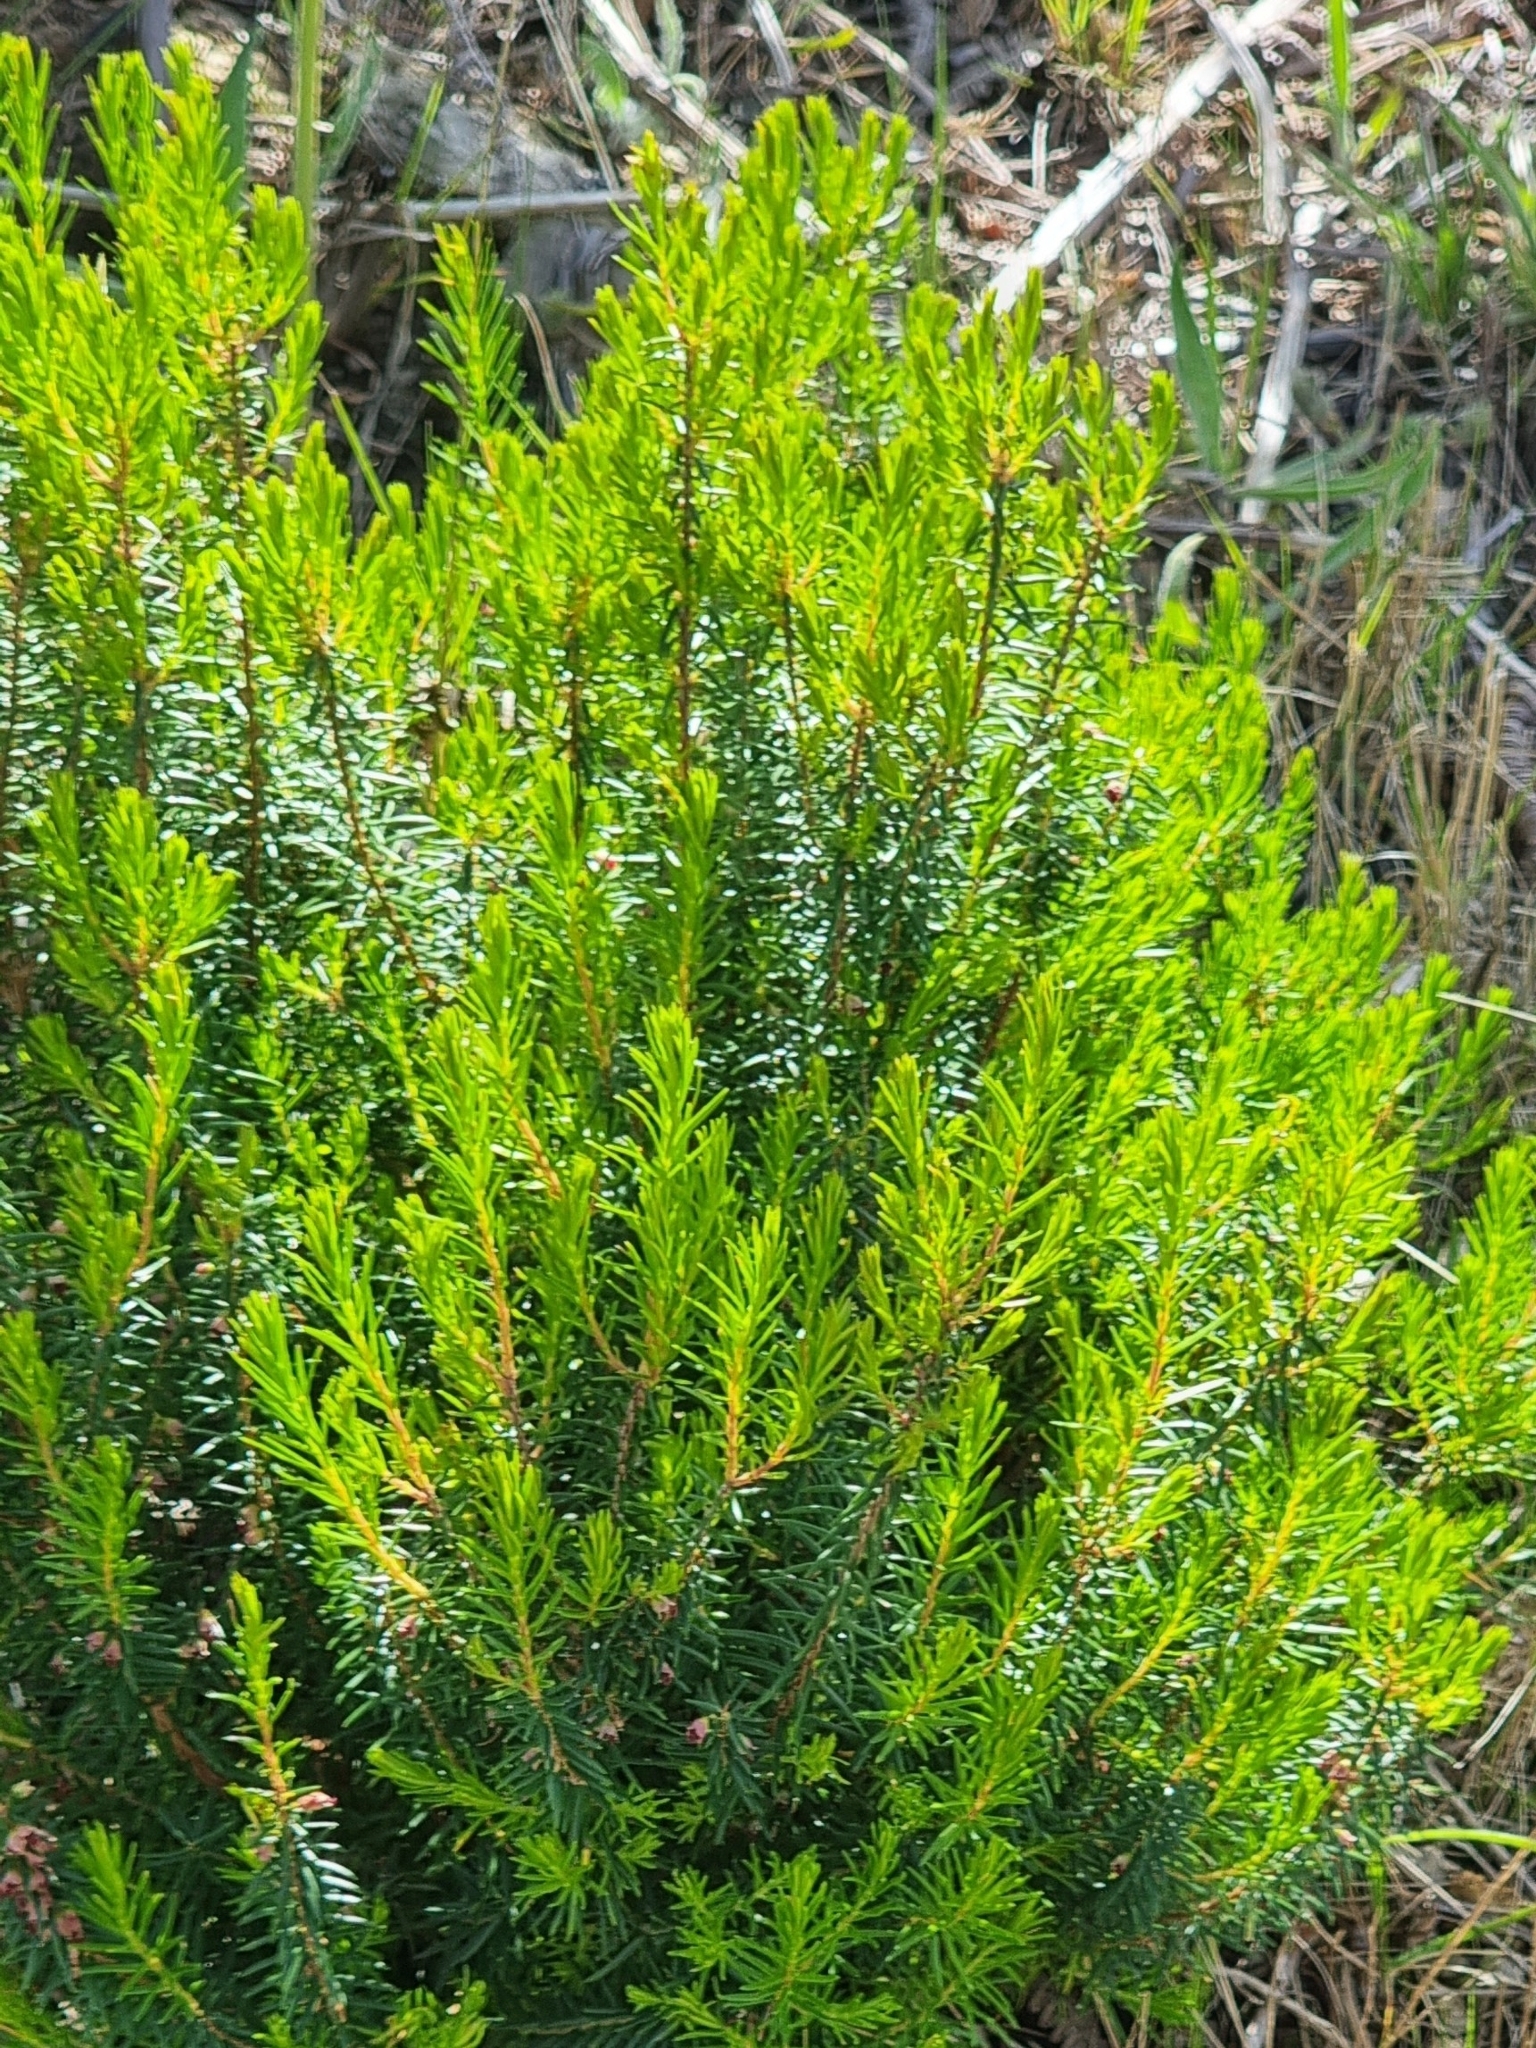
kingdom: Plantae
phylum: Tracheophyta
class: Magnoliopsida
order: Ericales
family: Ericaceae
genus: Erica
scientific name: Erica platycodon
